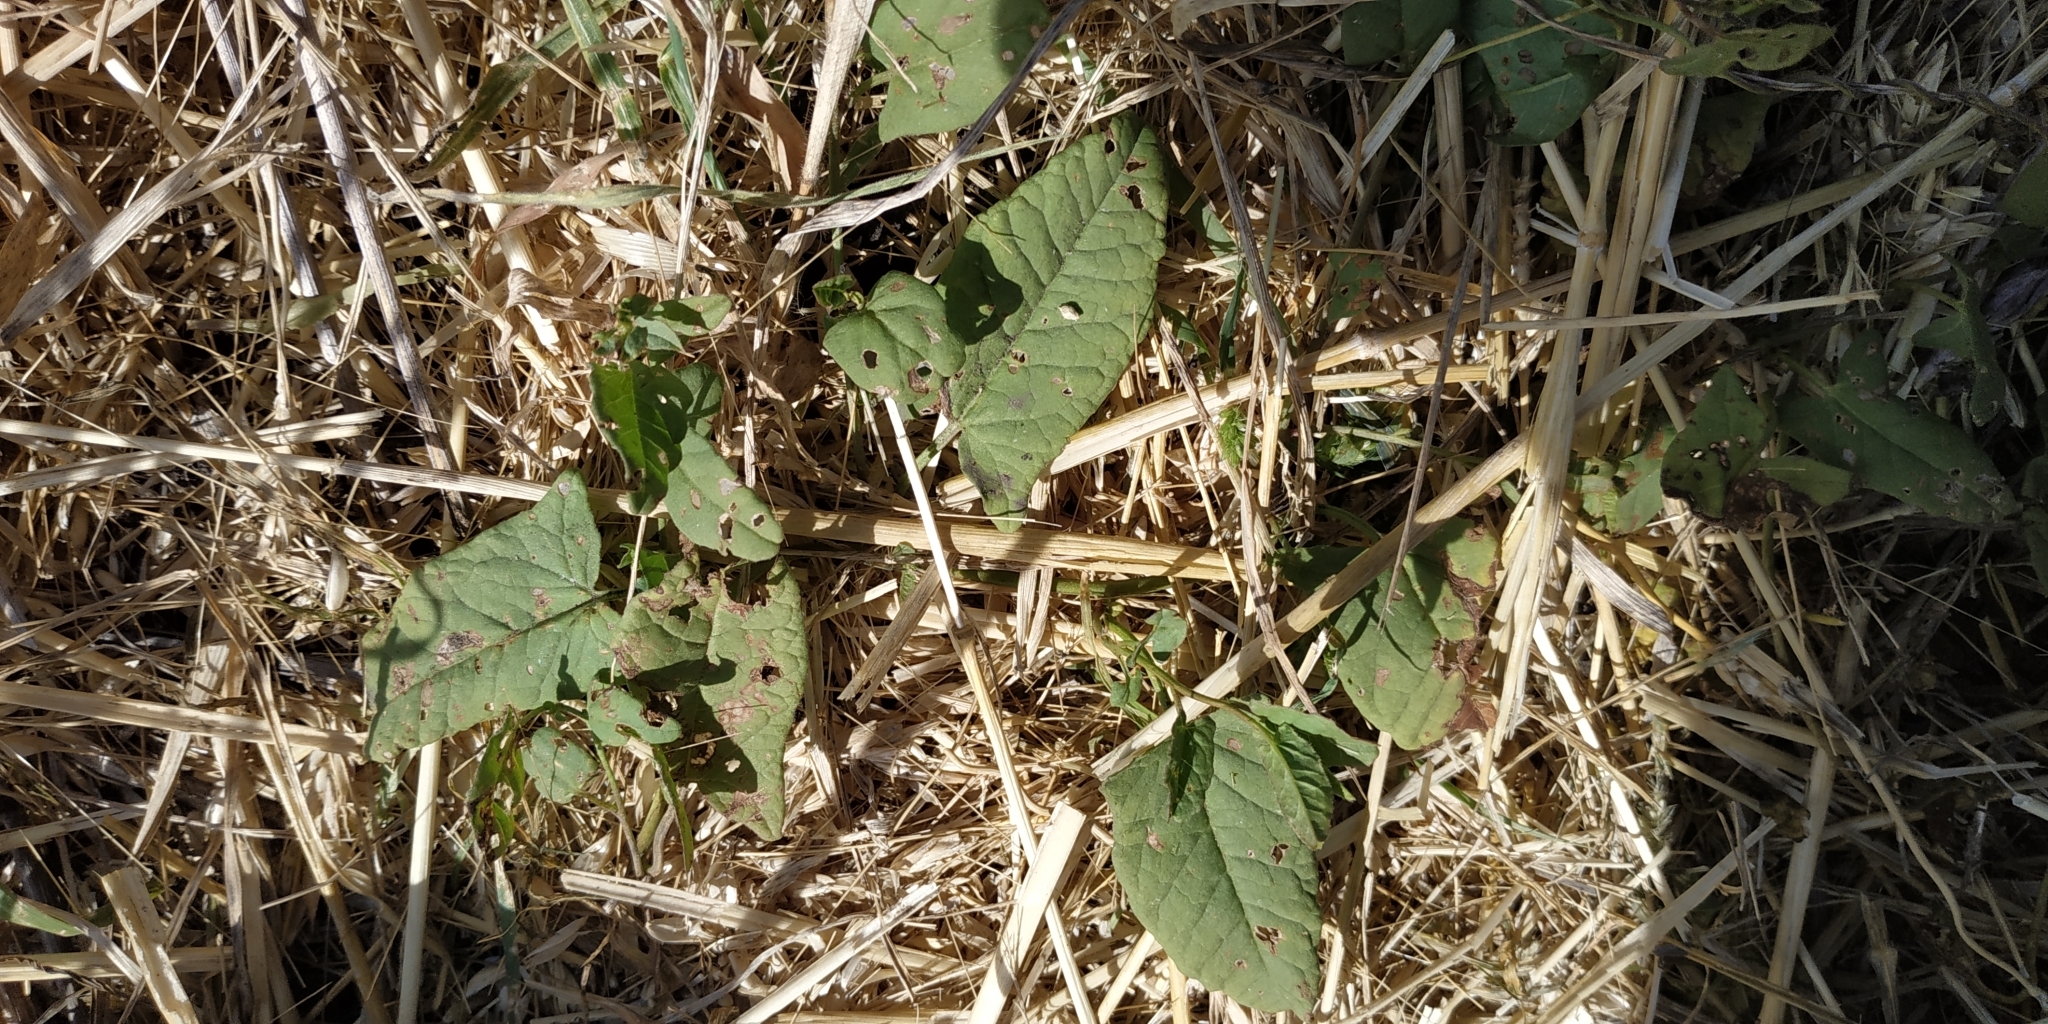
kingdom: Plantae
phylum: Tracheophyta
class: Magnoliopsida
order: Solanales
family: Convolvulaceae
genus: Convolvulus
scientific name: Convolvulus arvensis
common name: Field bindweed
